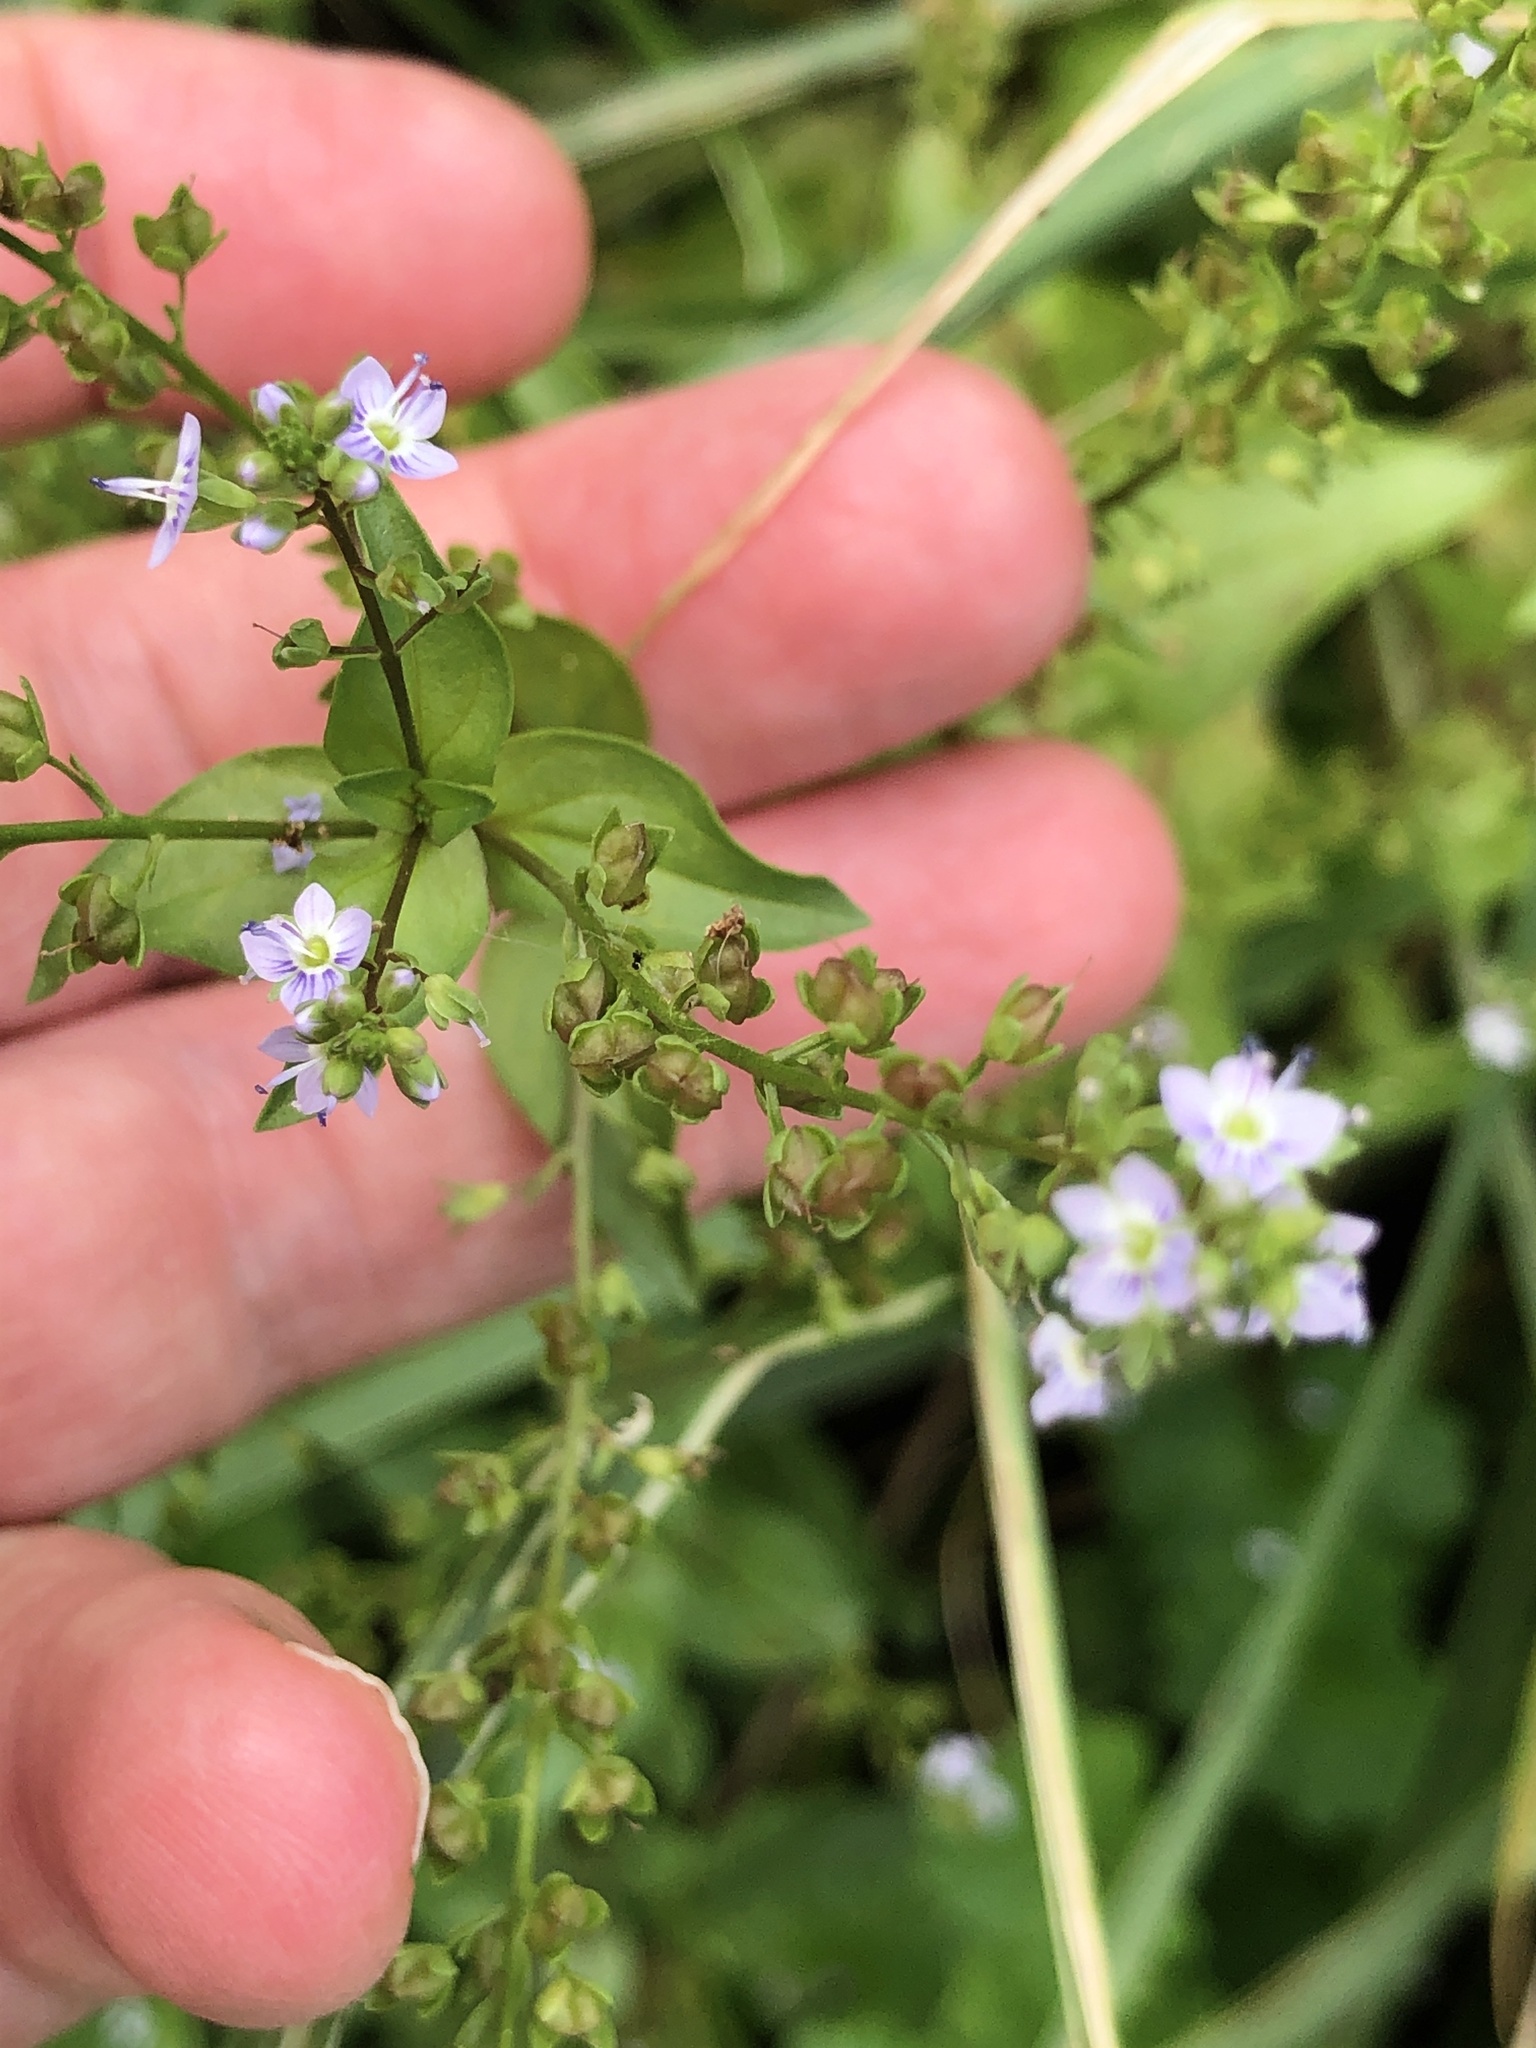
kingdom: Plantae
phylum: Tracheophyta
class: Magnoliopsida
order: Lamiales
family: Plantaginaceae
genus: Veronica
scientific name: Veronica anagallis-aquatica
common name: Water speedwell
